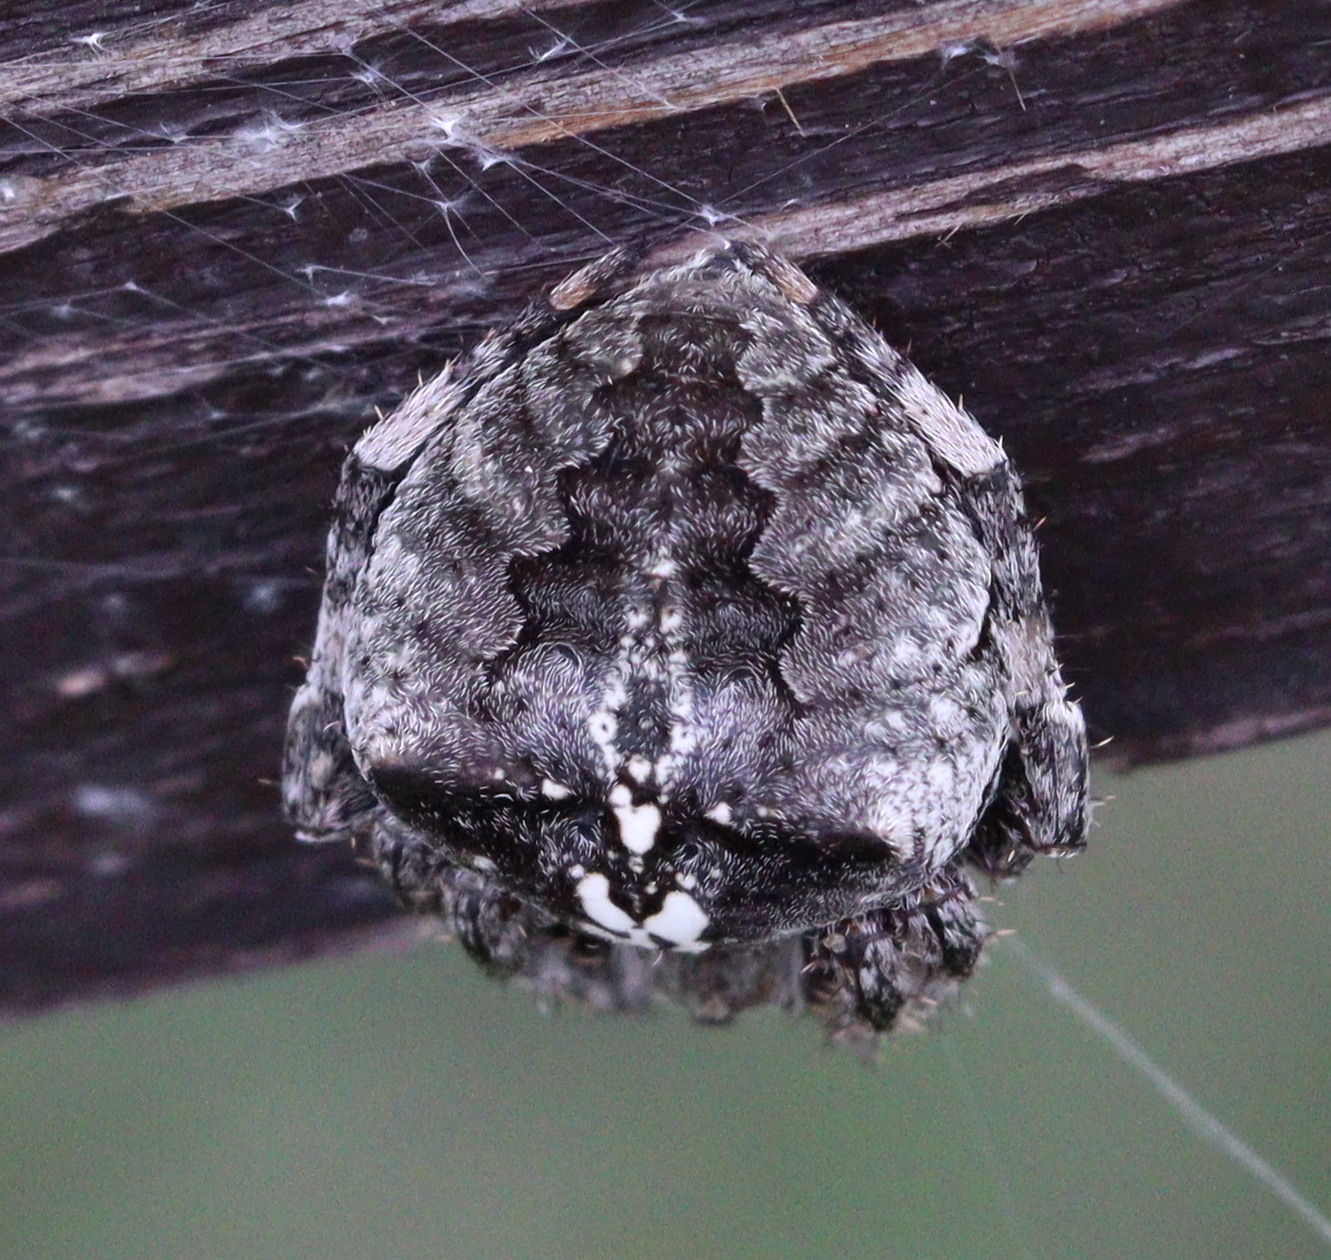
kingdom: Animalia
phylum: Arthropoda
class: Arachnida
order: Araneae
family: Araneidae
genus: Araneus
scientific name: Araneus angulatus
